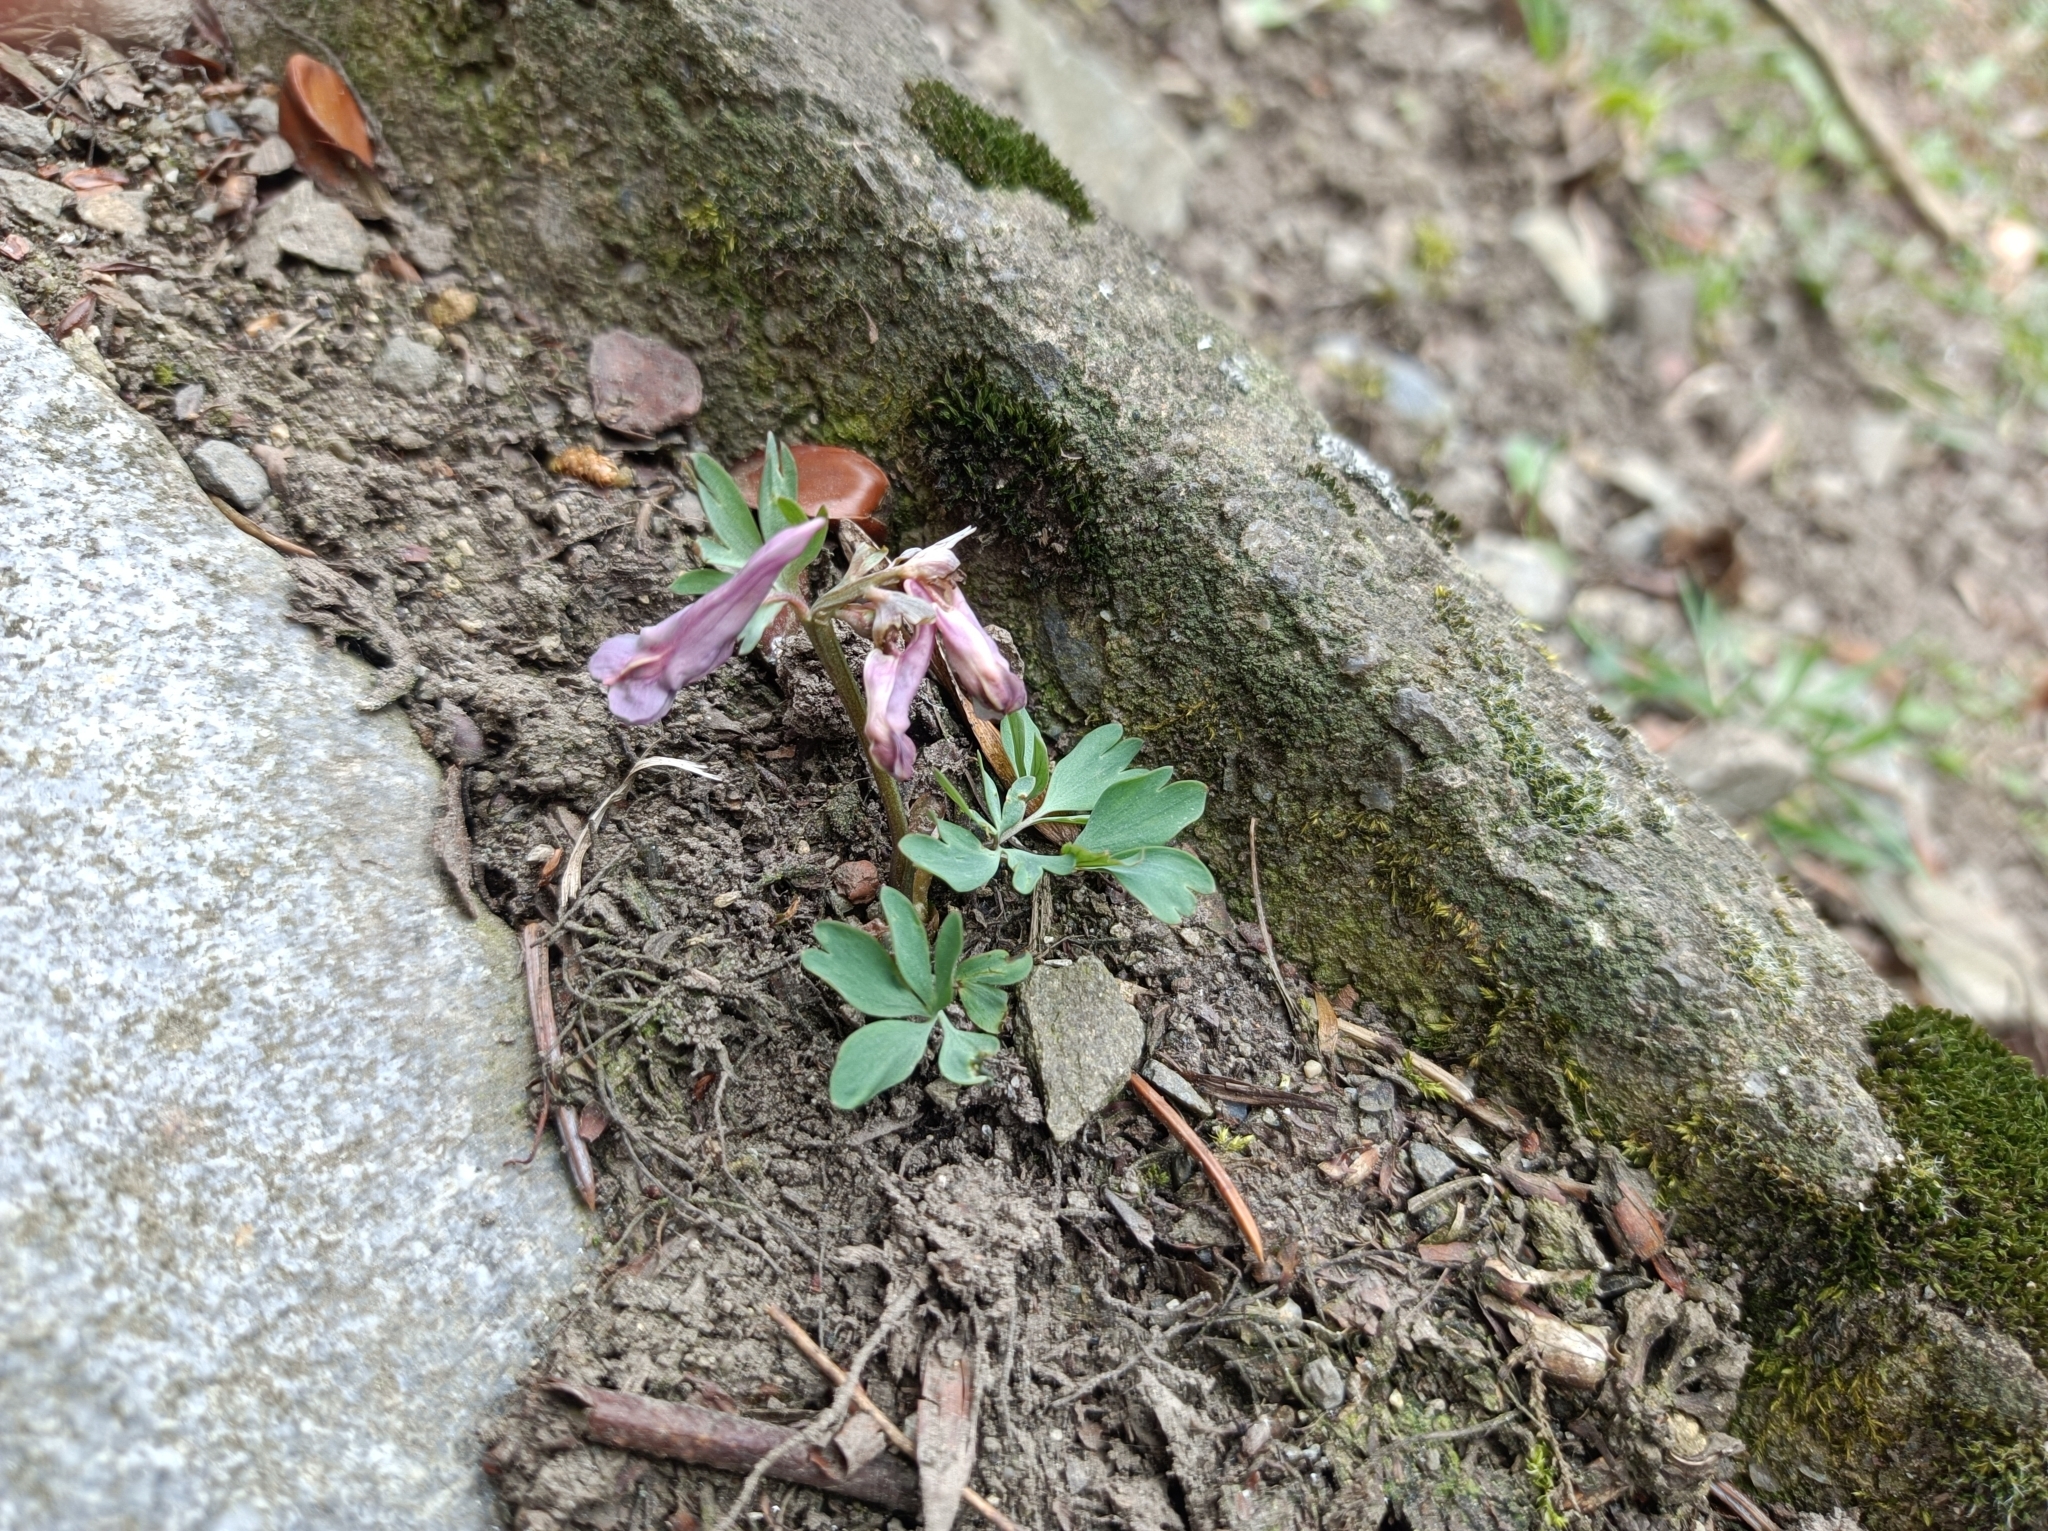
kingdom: Plantae
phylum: Tracheophyta
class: Magnoliopsida
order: Ranunculales
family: Papaveraceae
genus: Corydalis
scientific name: Corydalis solida
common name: Bird-in-a-bush
